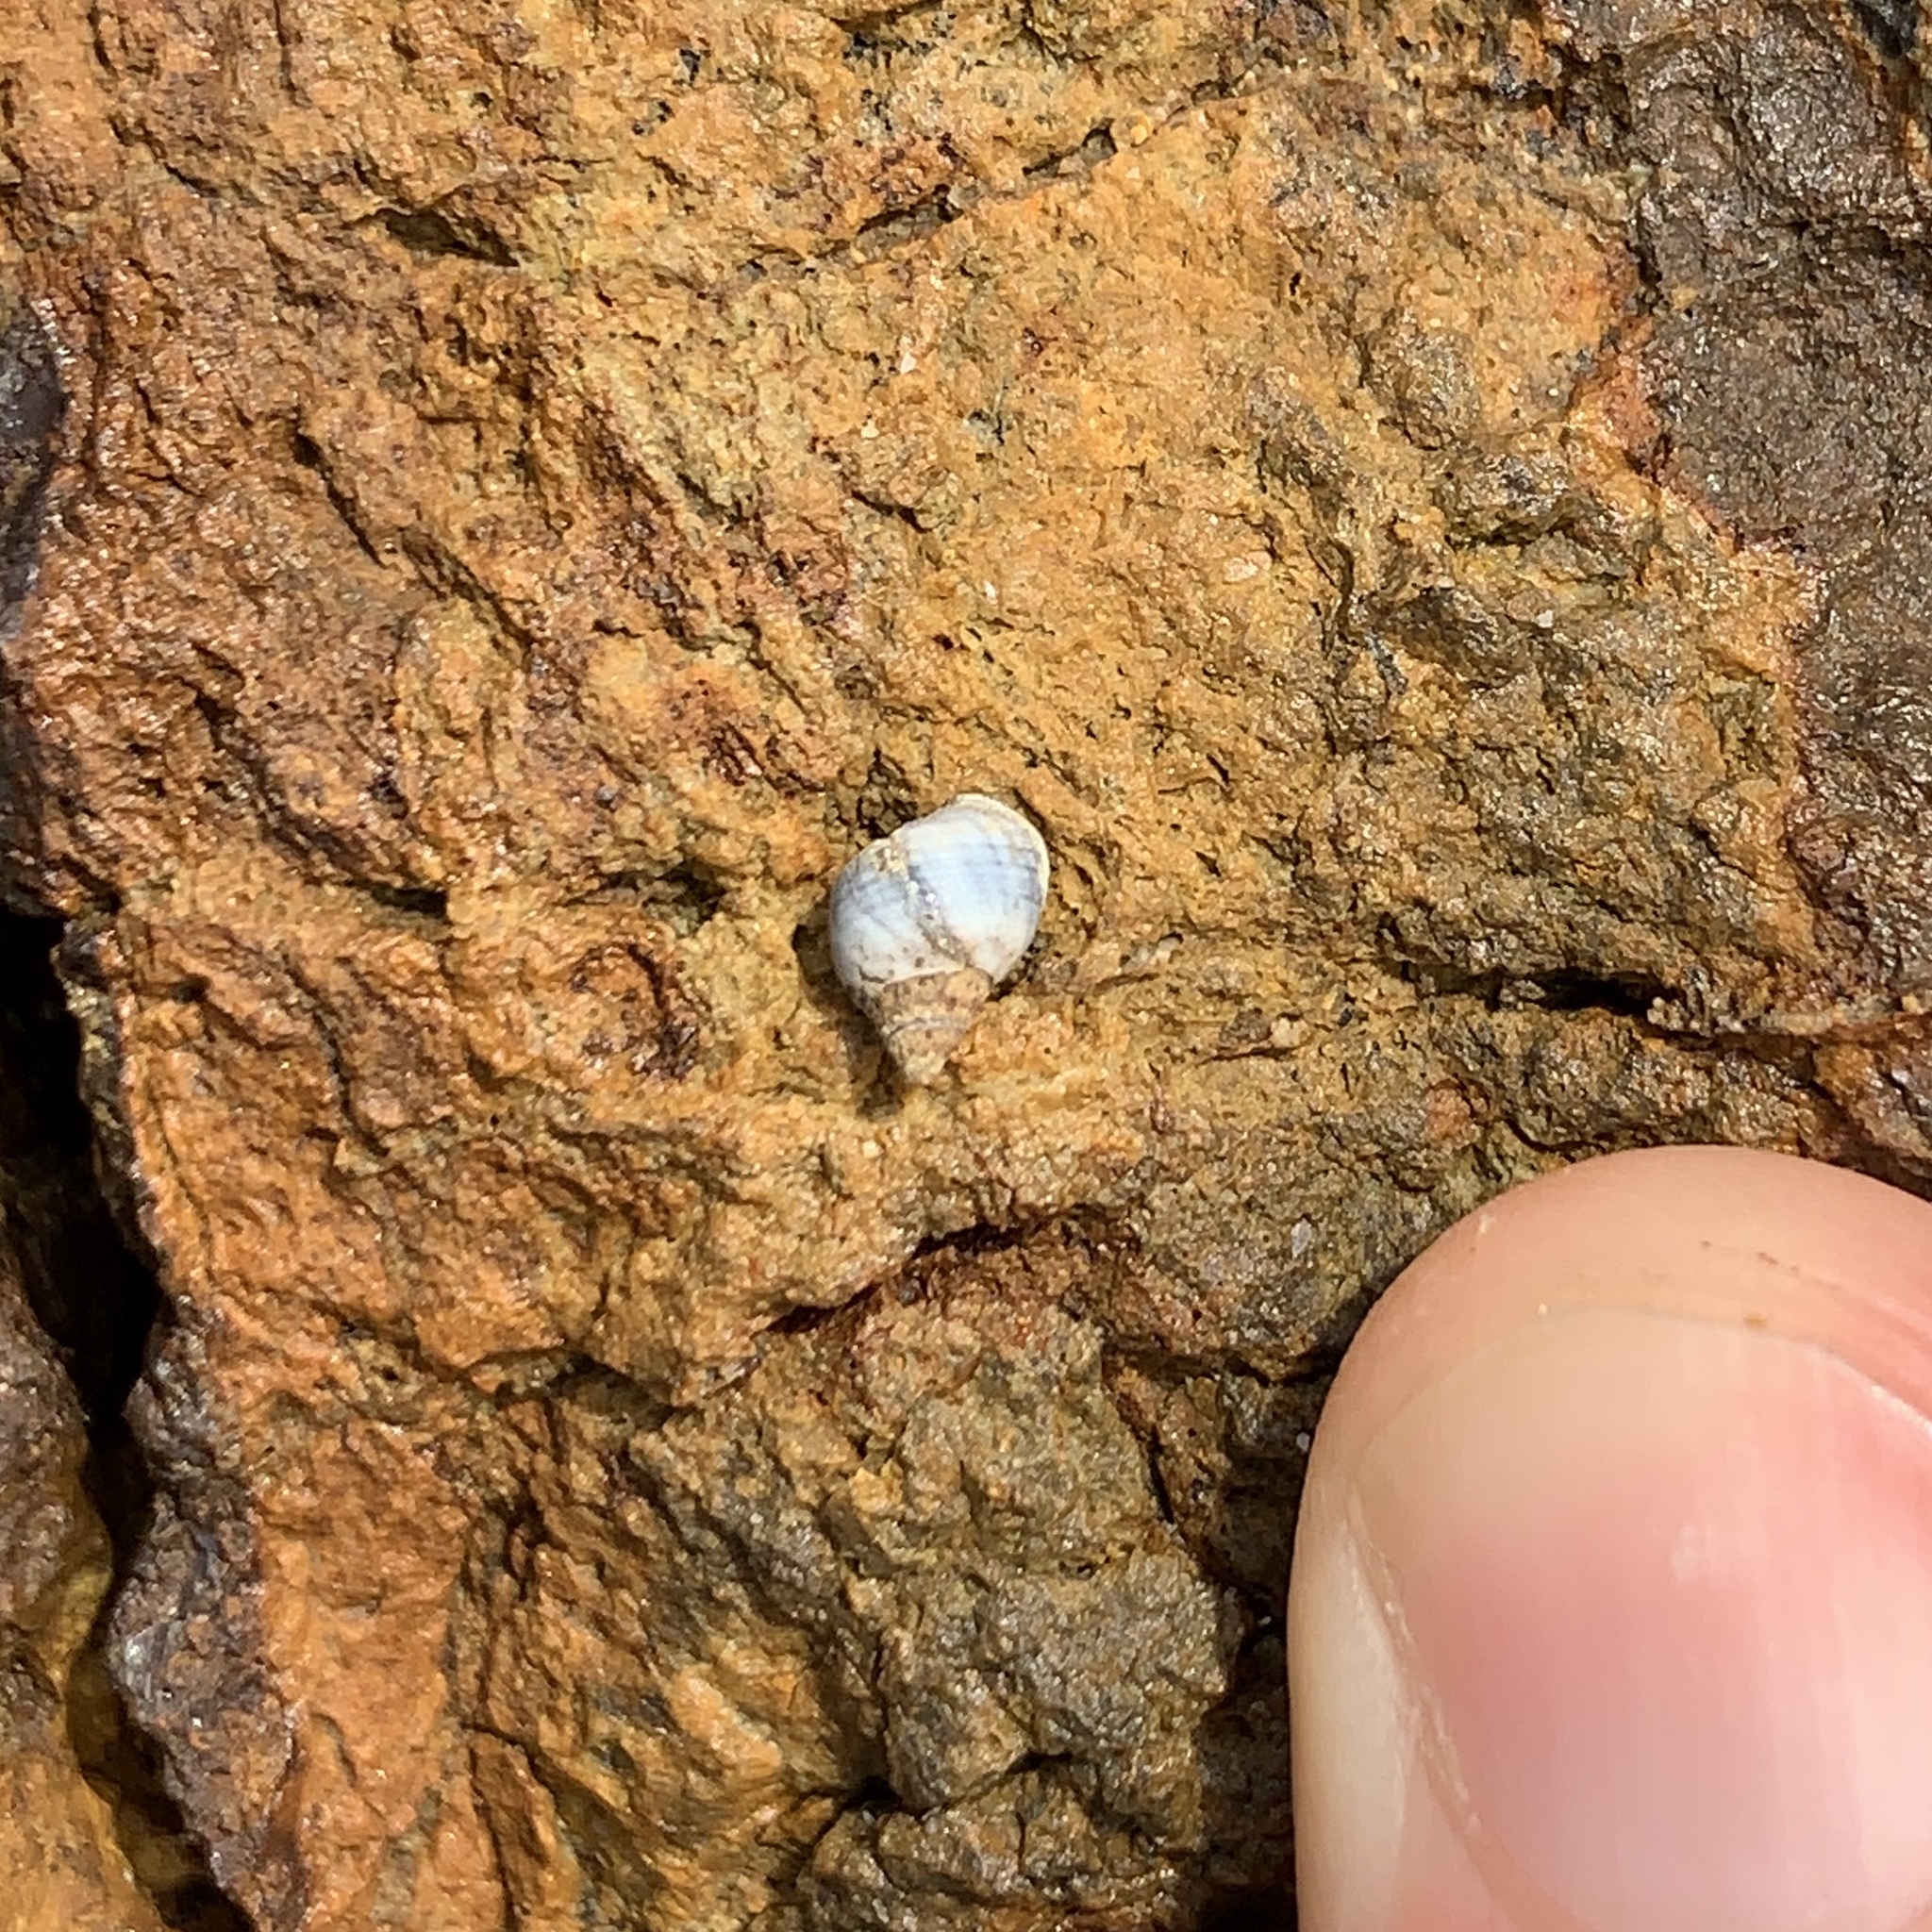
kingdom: Animalia
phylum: Mollusca
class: Gastropoda
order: Littorinimorpha
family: Littorinidae
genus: Austrolittorina
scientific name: Austrolittorina unifasciata
